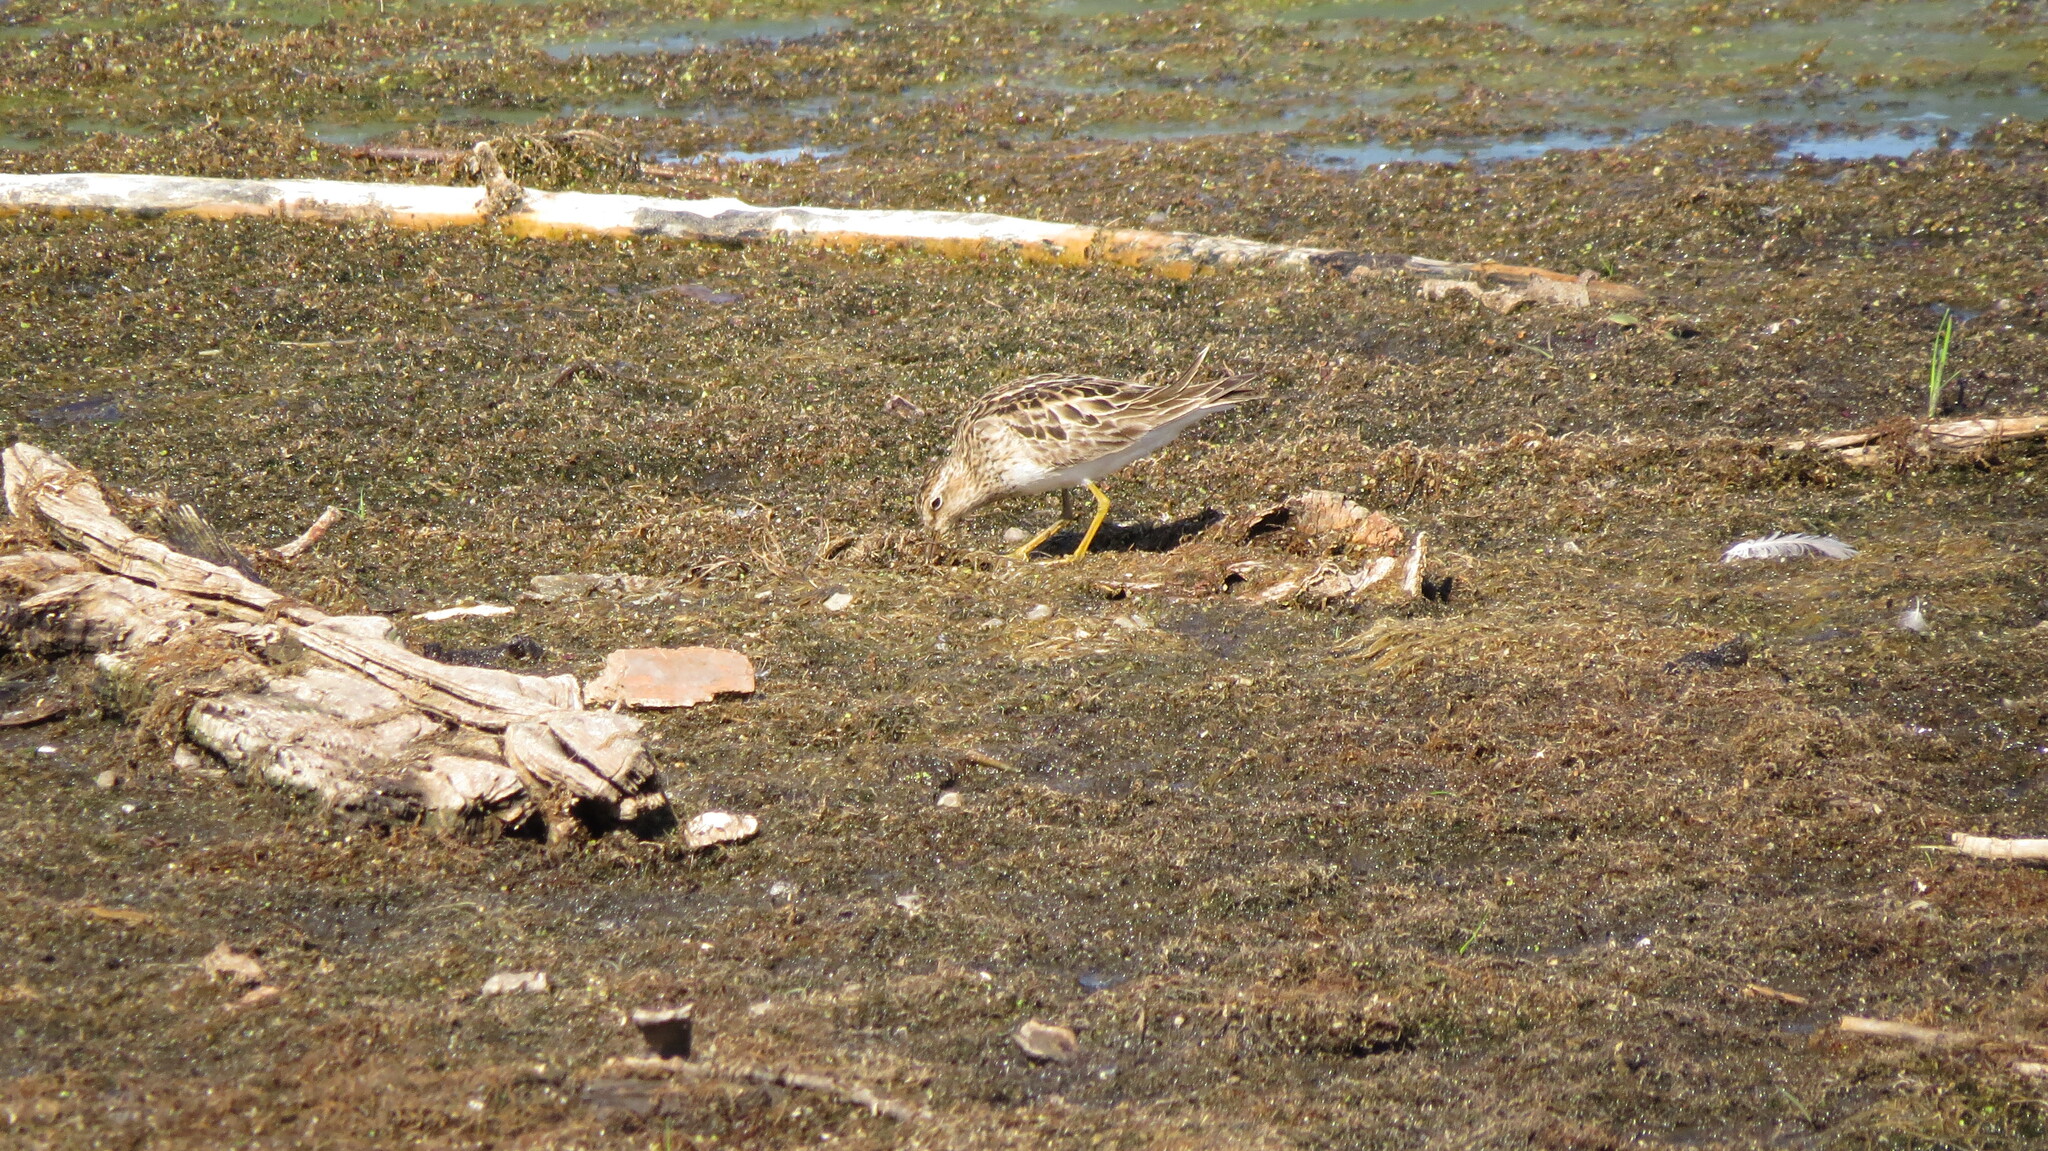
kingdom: Animalia
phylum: Chordata
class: Aves
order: Charadriiformes
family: Scolopacidae
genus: Calidris
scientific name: Calidris melanotos
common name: Pectoral sandpiper
